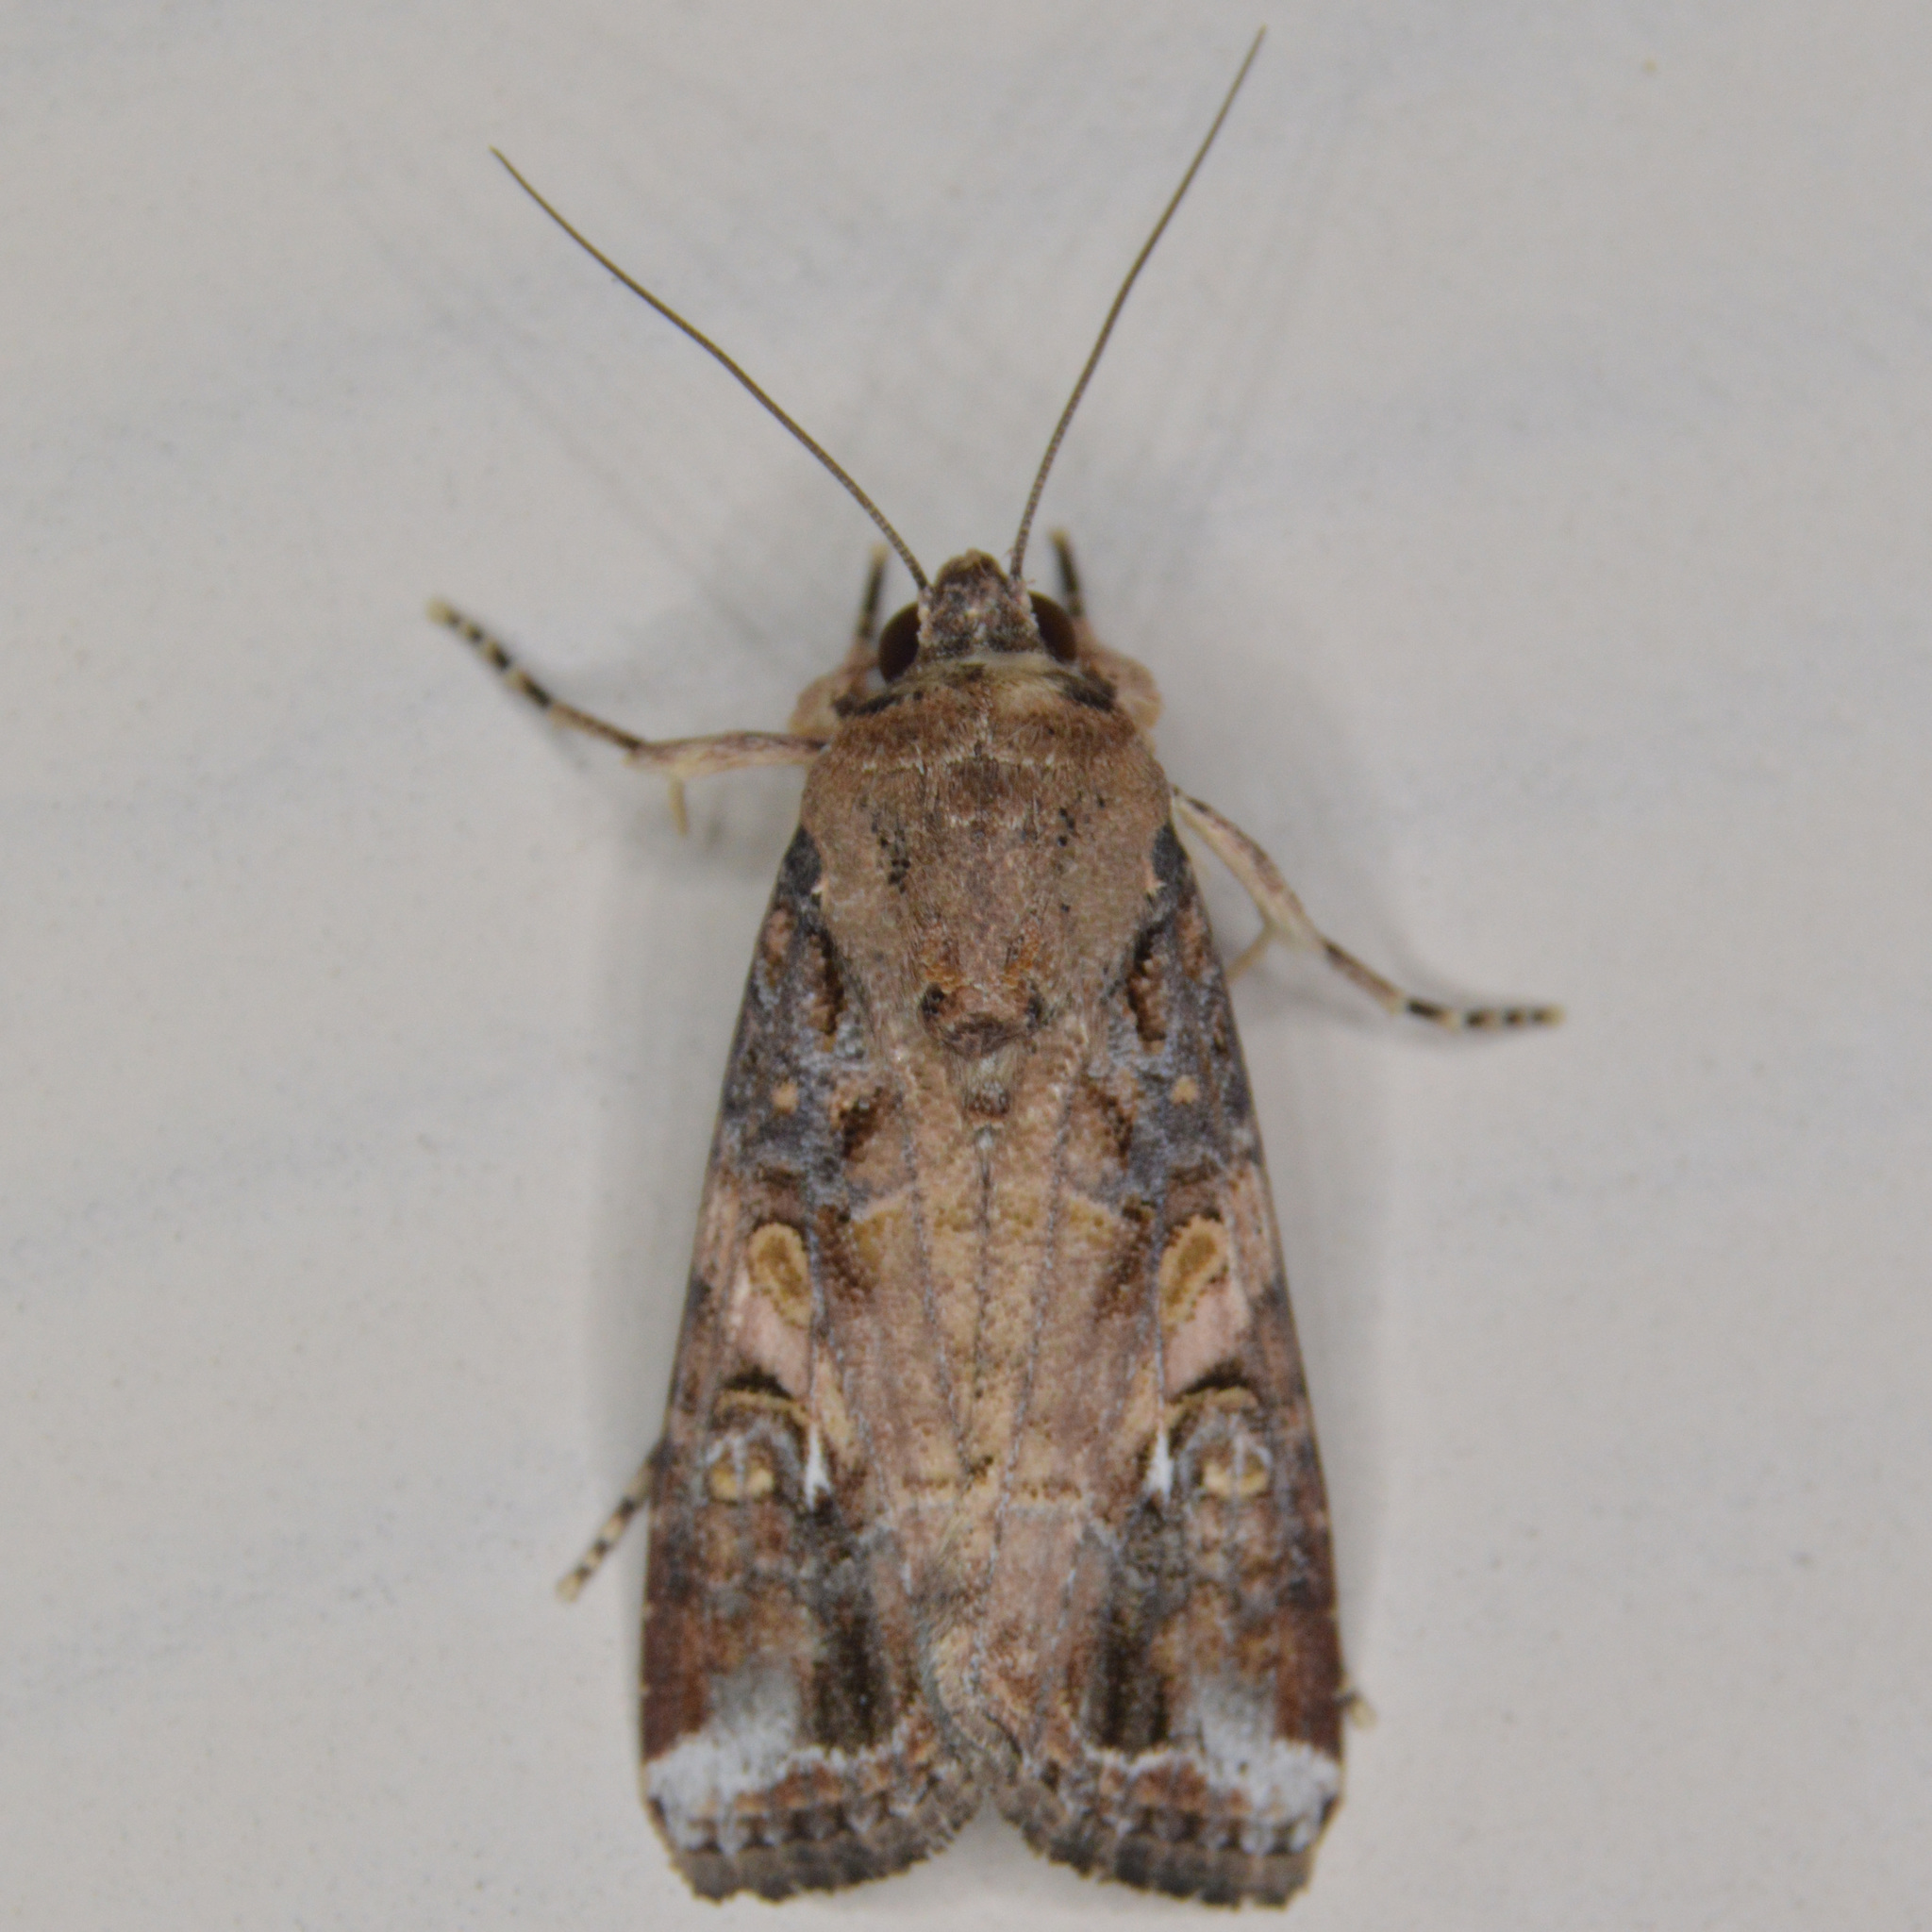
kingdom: Animalia
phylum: Arthropoda
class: Insecta
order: Lepidoptera
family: Noctuidae
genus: Spodoptera
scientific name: Spodoptera frugiperda
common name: Fall armyworm
